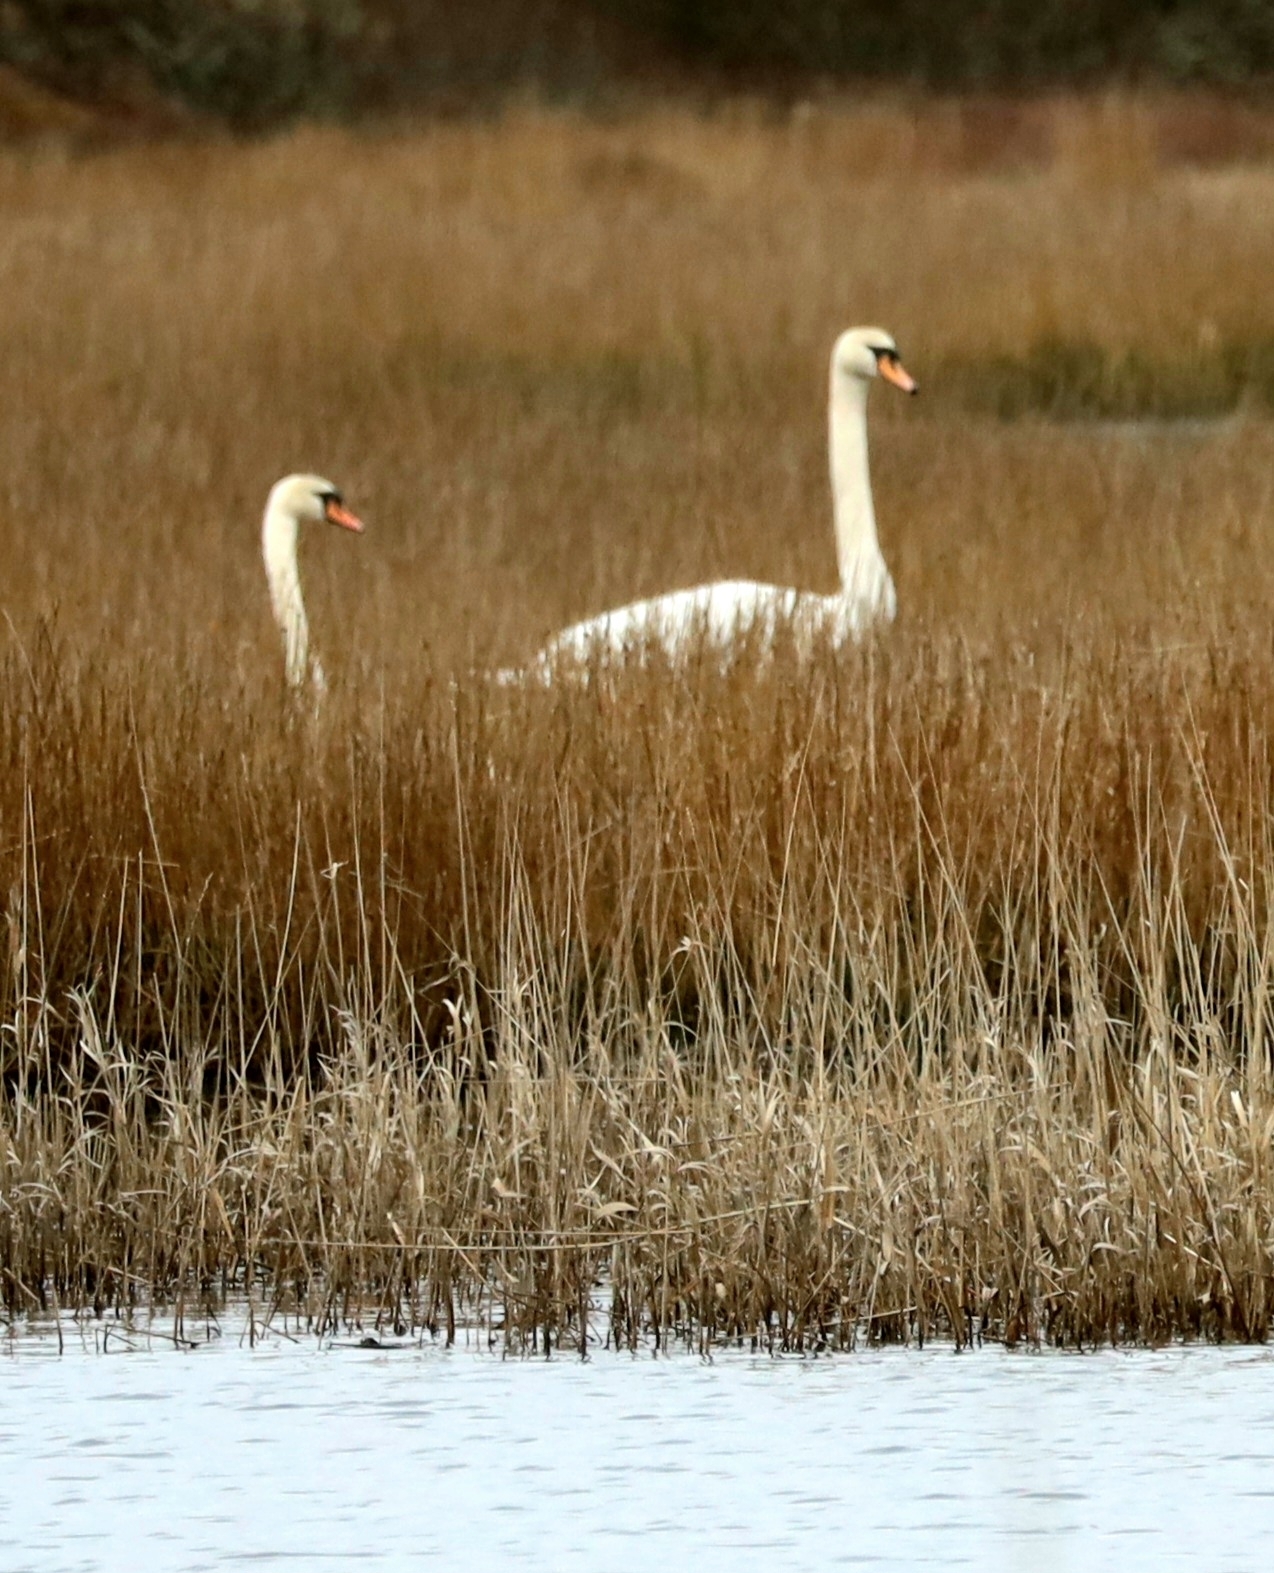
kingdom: Animalia
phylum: Chordata
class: Aves
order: Anseriformes
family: Anatidae
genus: Cygnus
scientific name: Cygnus olor
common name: Mute swan
